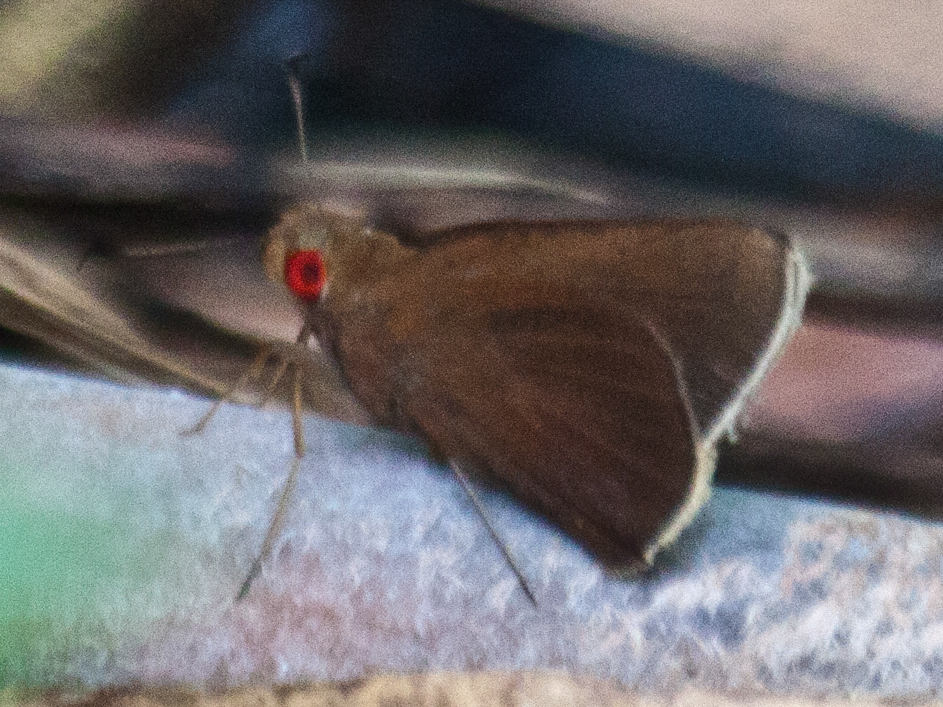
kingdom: Animalia
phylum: Arthropoda
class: Insecta
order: Lepidoptera
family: Hesperiidae
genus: Matapa
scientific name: Matapa aria
